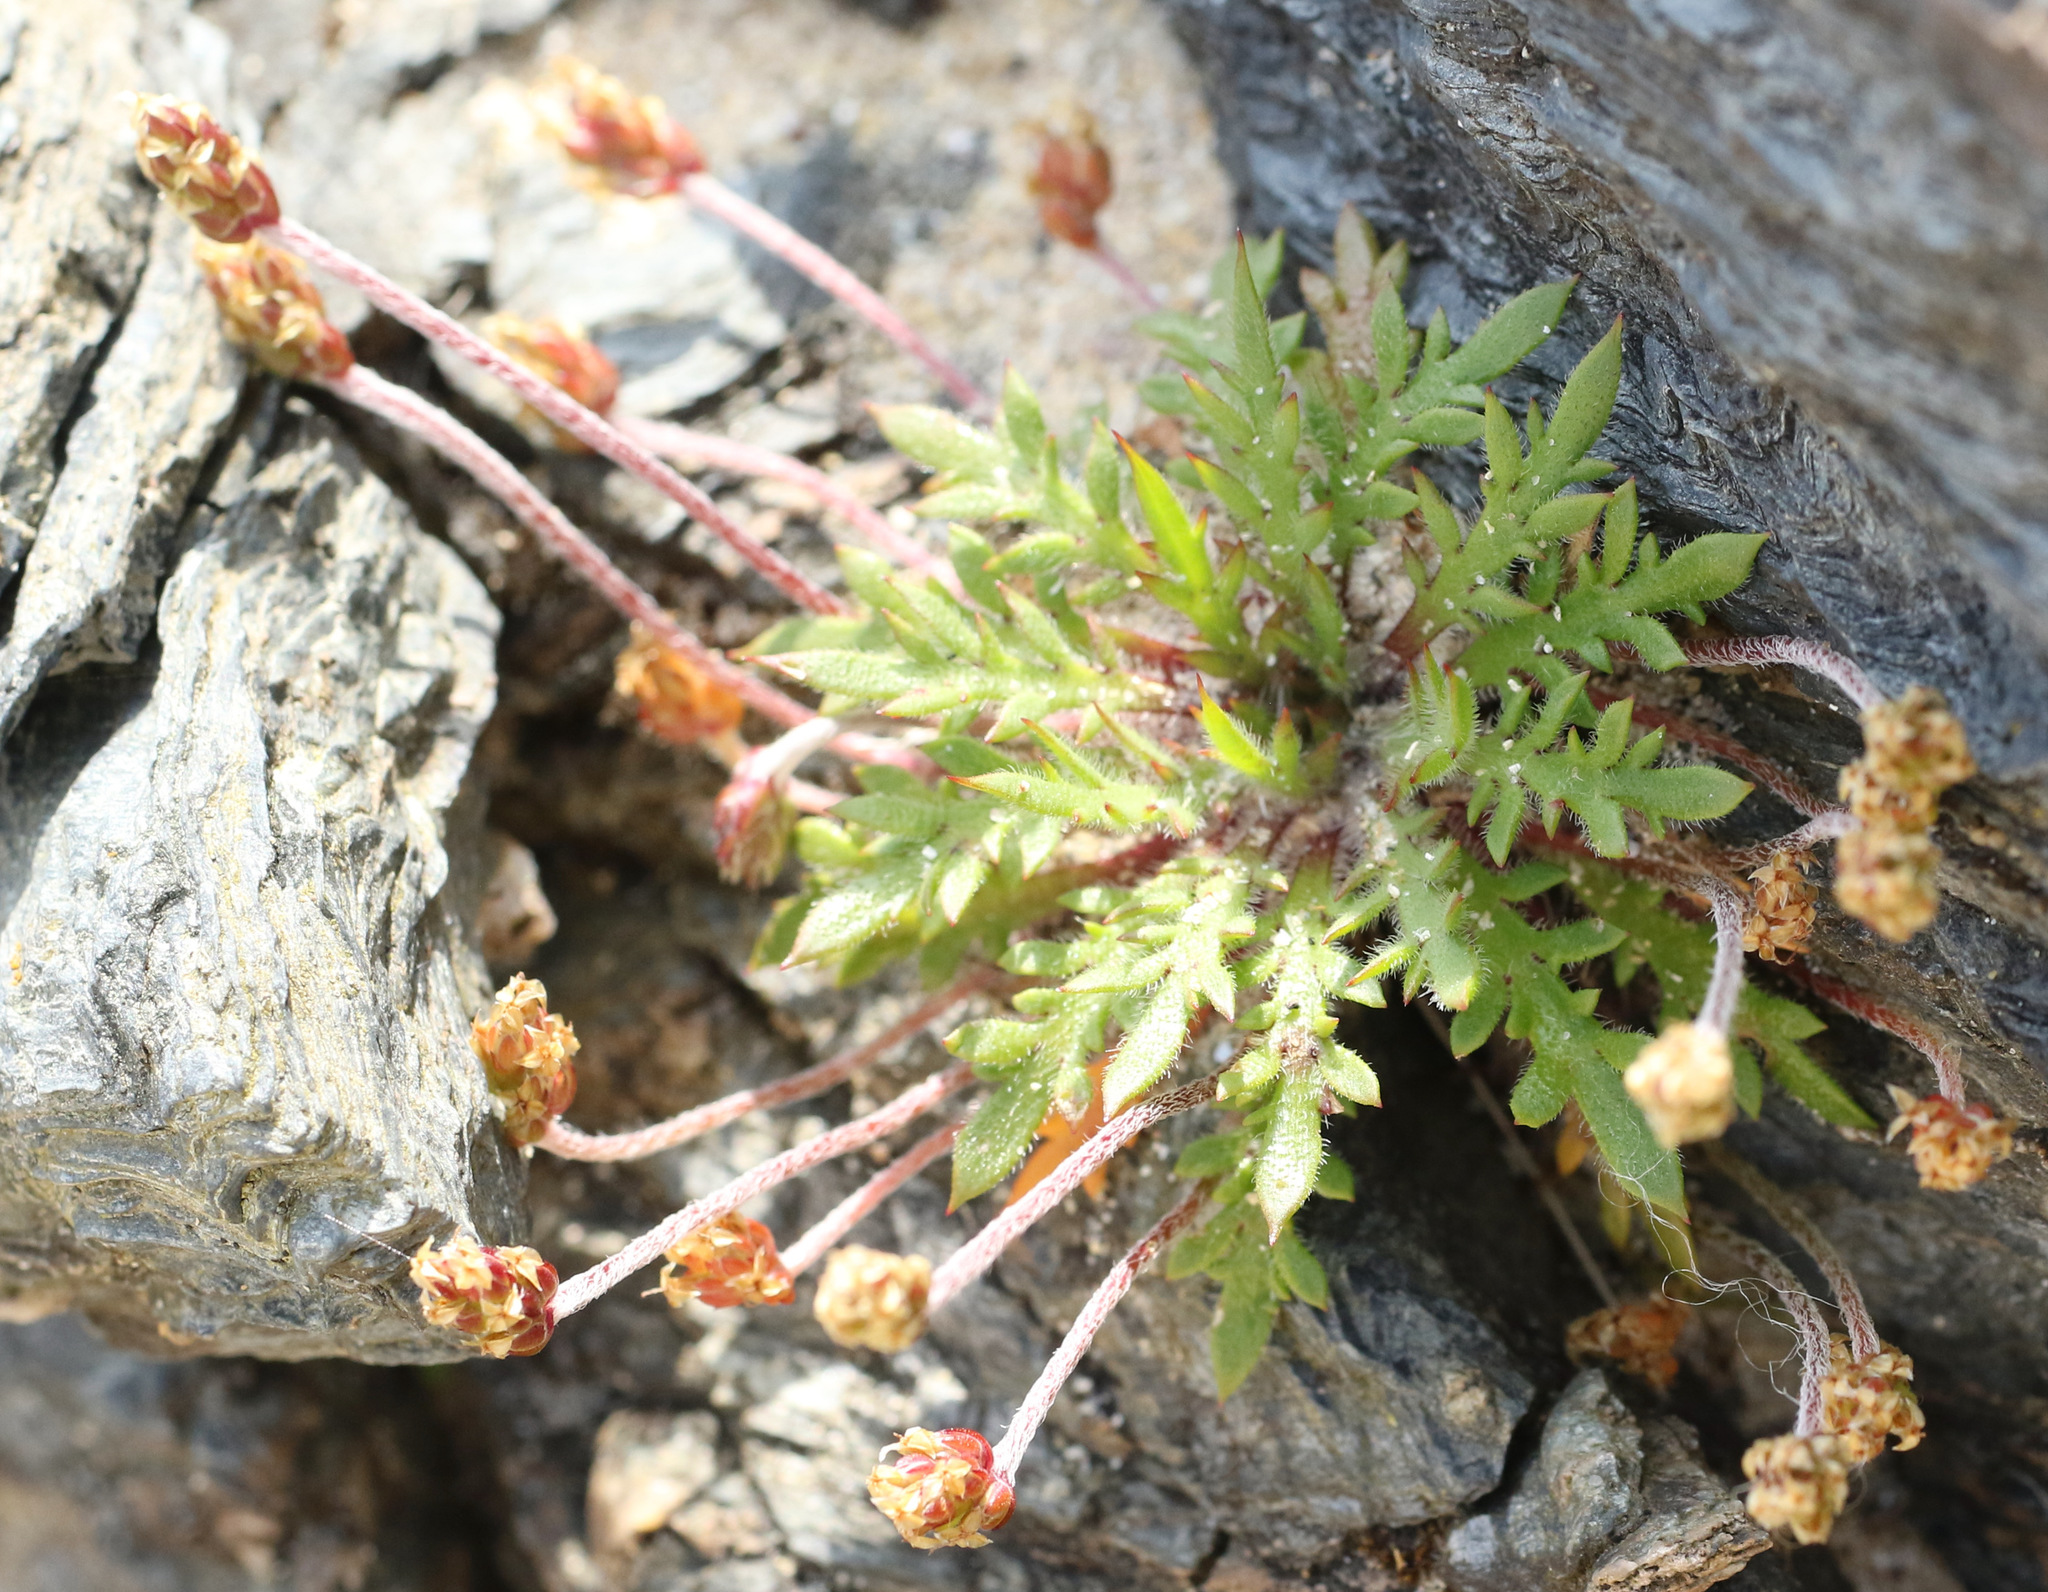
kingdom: Plantae
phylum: Tracheophyta
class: Magnoliopsida
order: Lamiales
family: Plantaginaceae
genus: Plantago
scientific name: Plantago coronopus
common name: Buck's-horn plantain
